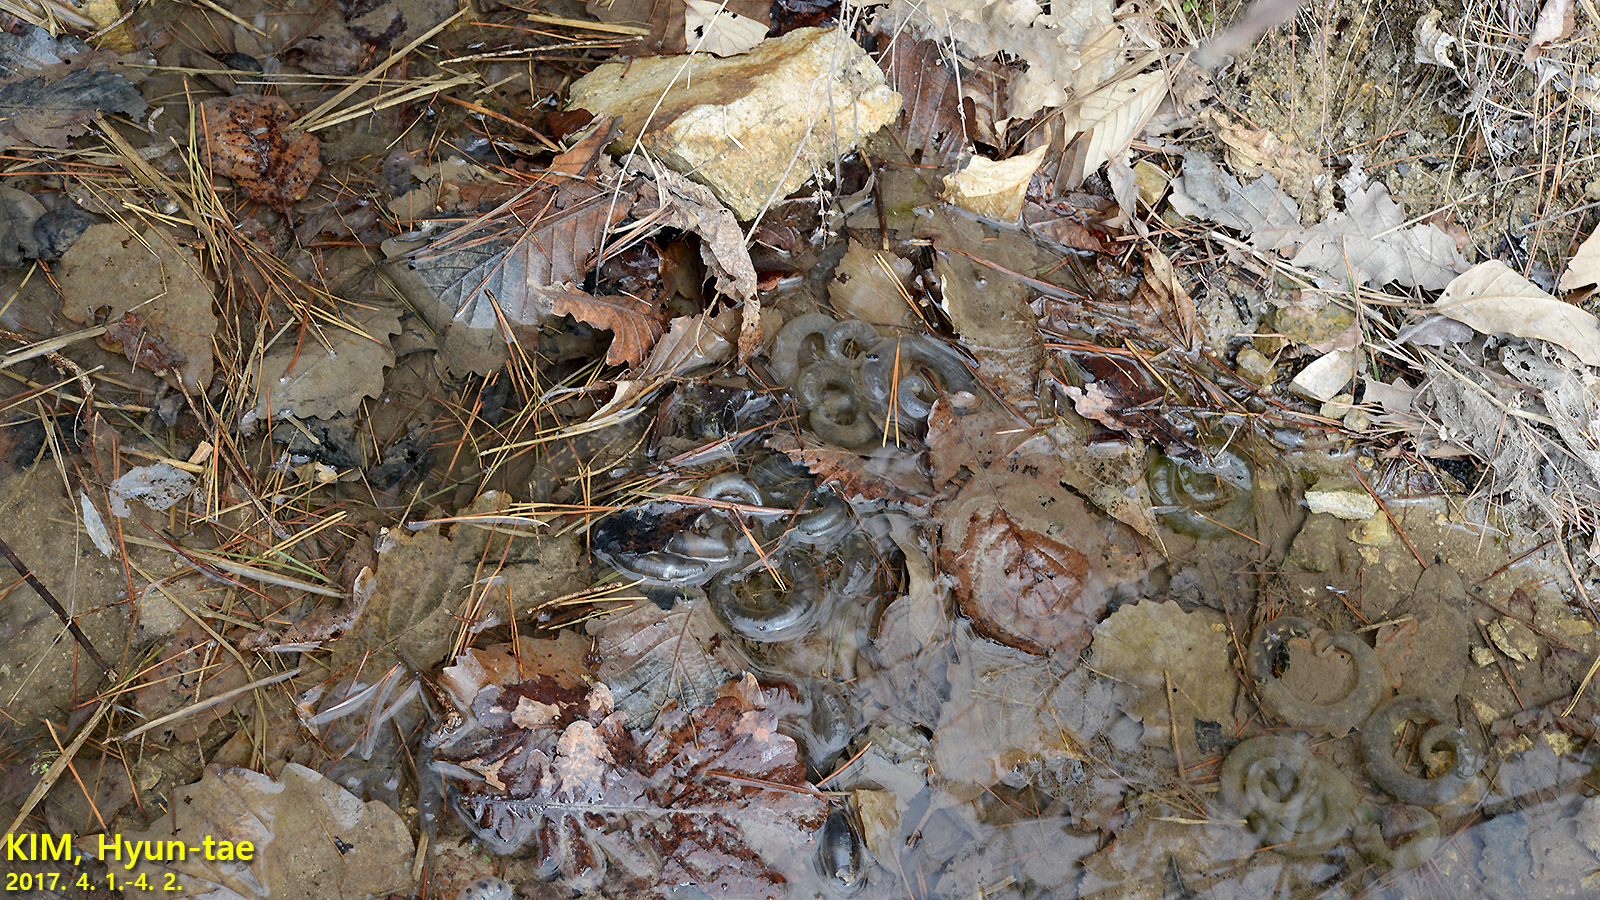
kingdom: Animalia
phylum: Chordata
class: Amphibia
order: Caudata
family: Hynobiidae
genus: Hynobius
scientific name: Hynobius quelpaertensis
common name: Cheju salamander
